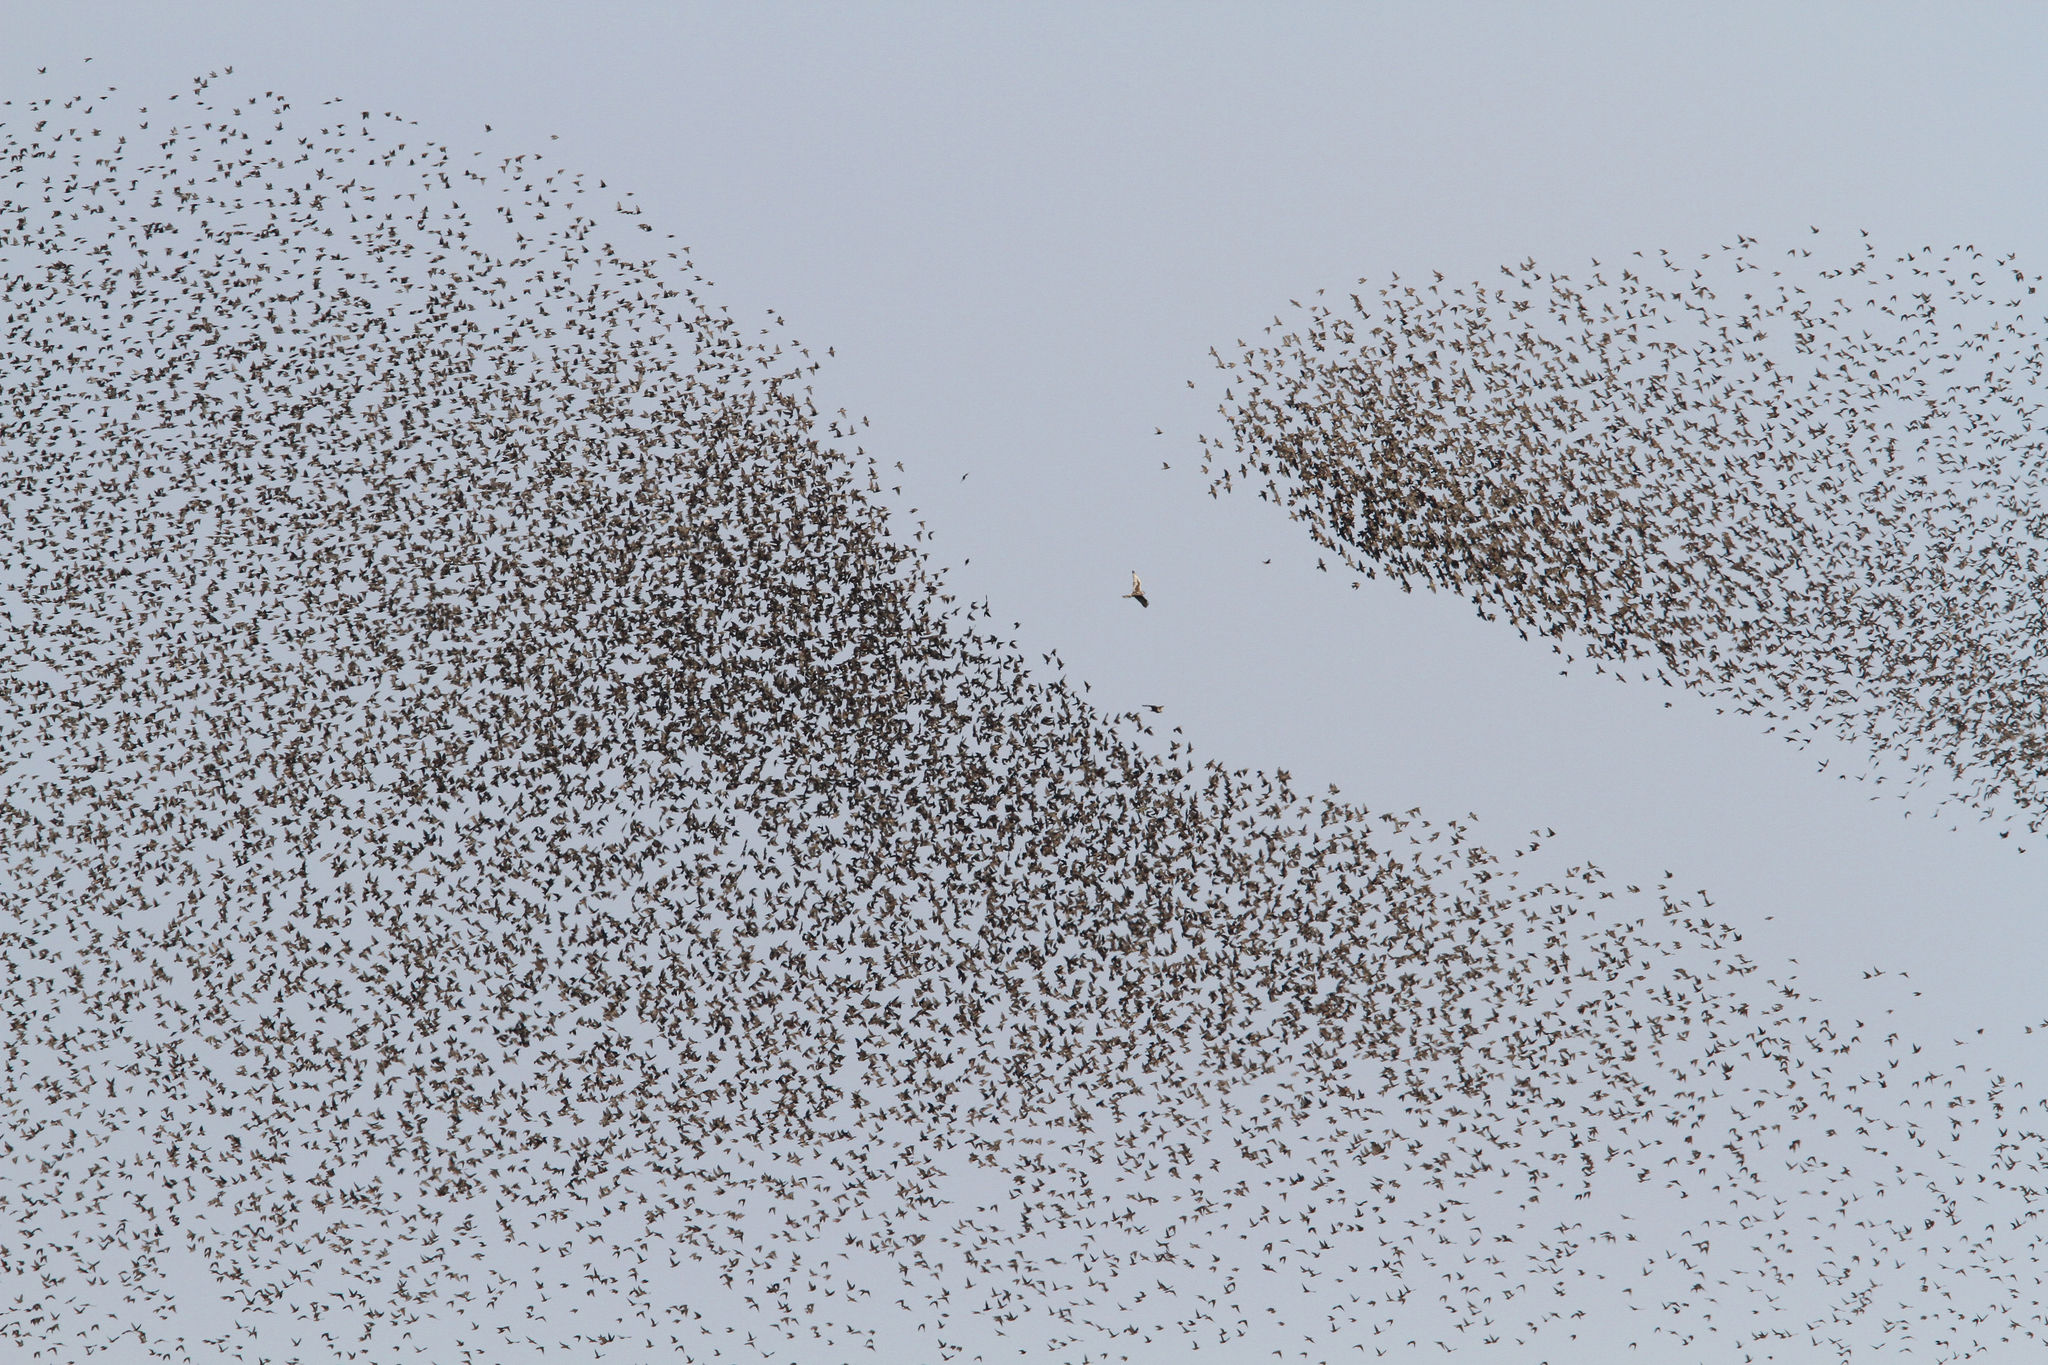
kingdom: Animalia
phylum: Chordata
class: Aves
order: Falconiformes
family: Falconidae
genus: Falco
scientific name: Falco cherrug
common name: Saker falcon
